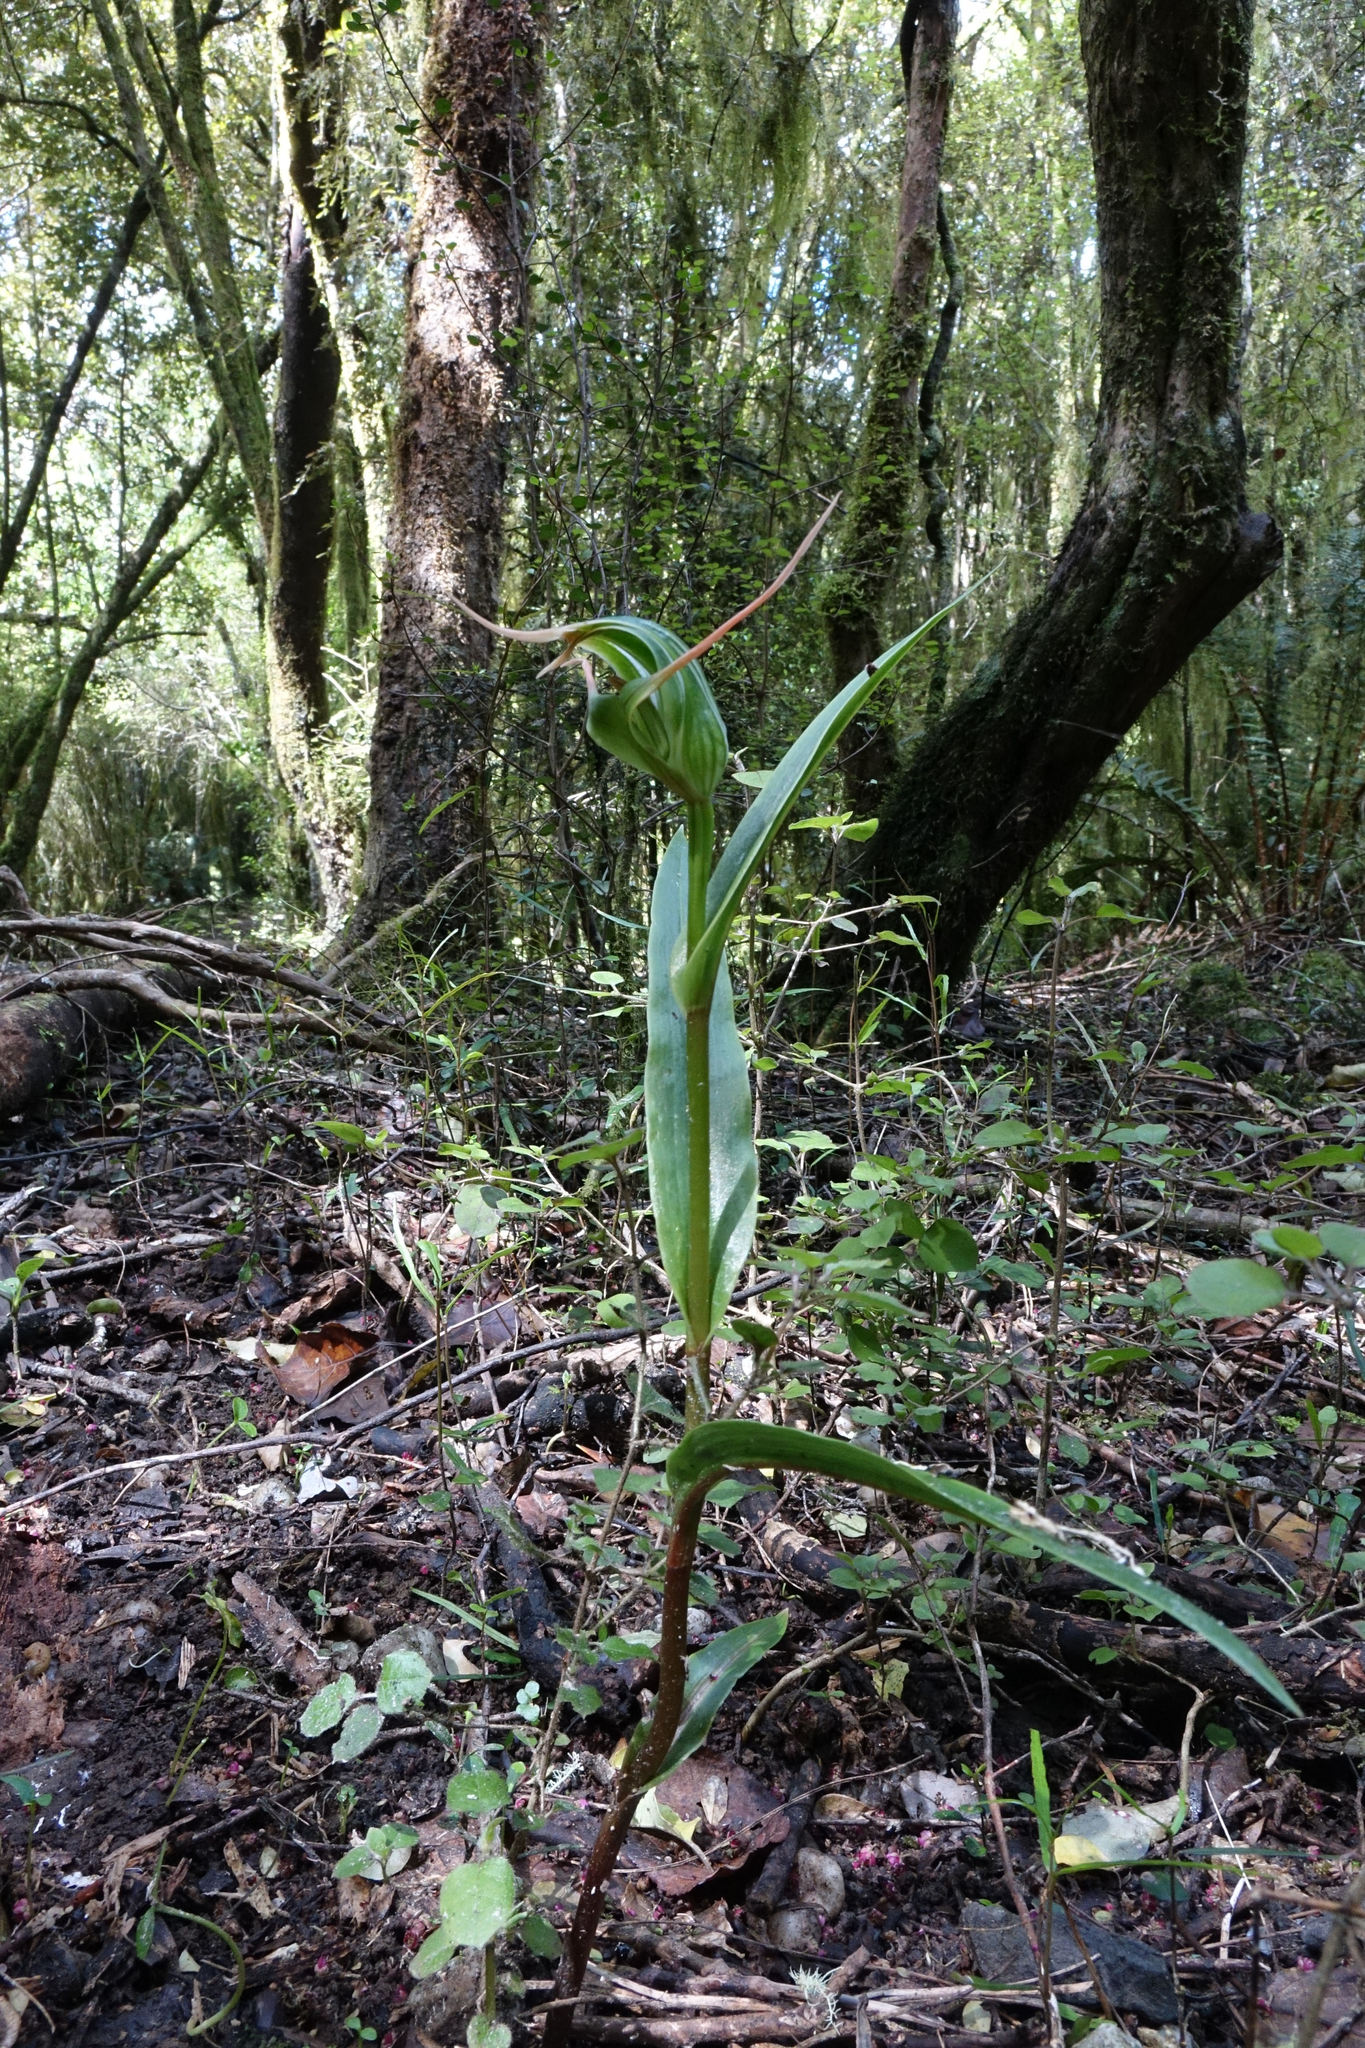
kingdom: Plantae
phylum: Tracheophyta
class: Liliopsida
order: Asparagales
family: Orchidaceae
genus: Pterostylis
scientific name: Pterostylis banksii
